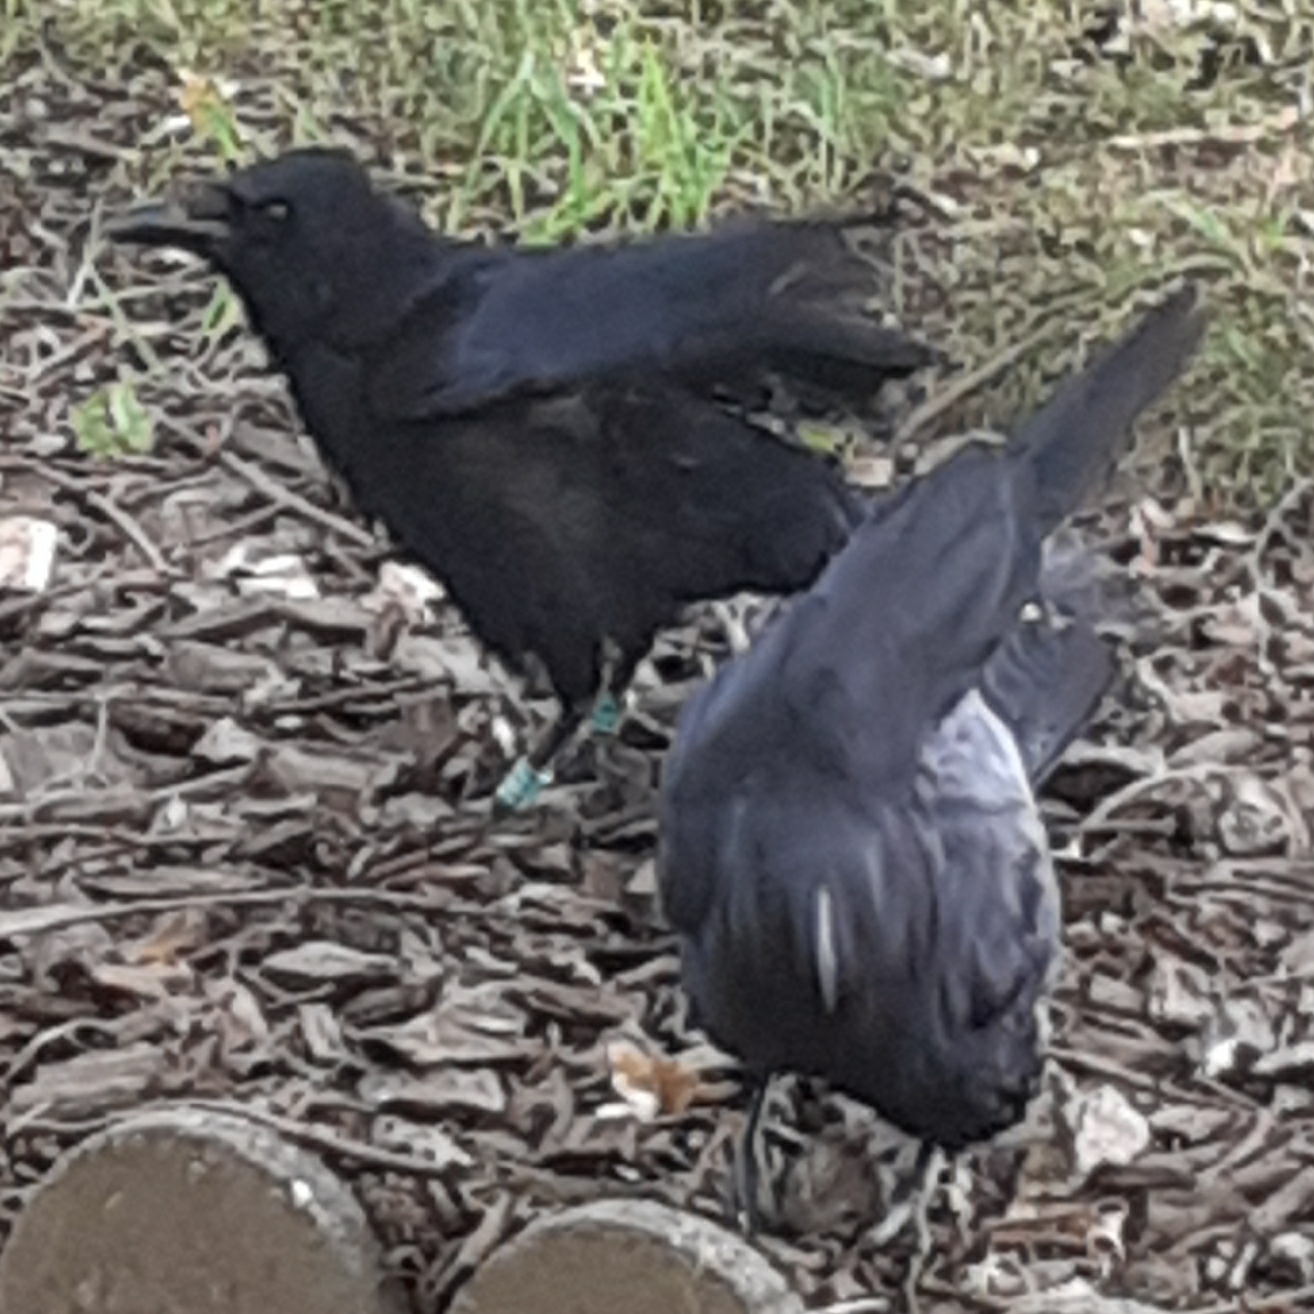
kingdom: Animalia
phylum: Chordata
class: Aves
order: Passeriformes
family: Corvidae
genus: Corvus
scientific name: Corvus corone
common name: Carrion crow
